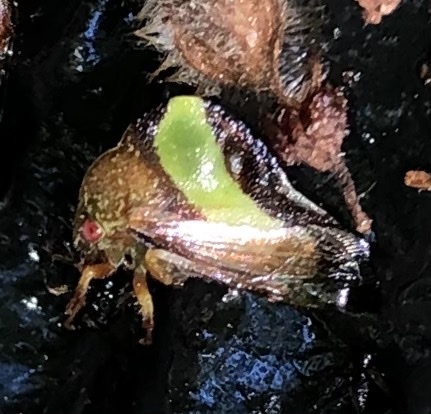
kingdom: Animalia
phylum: Arthropoda
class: Insecta
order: Hemiptera
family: Membracidae
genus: Smilia
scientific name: Smilia fasciata
